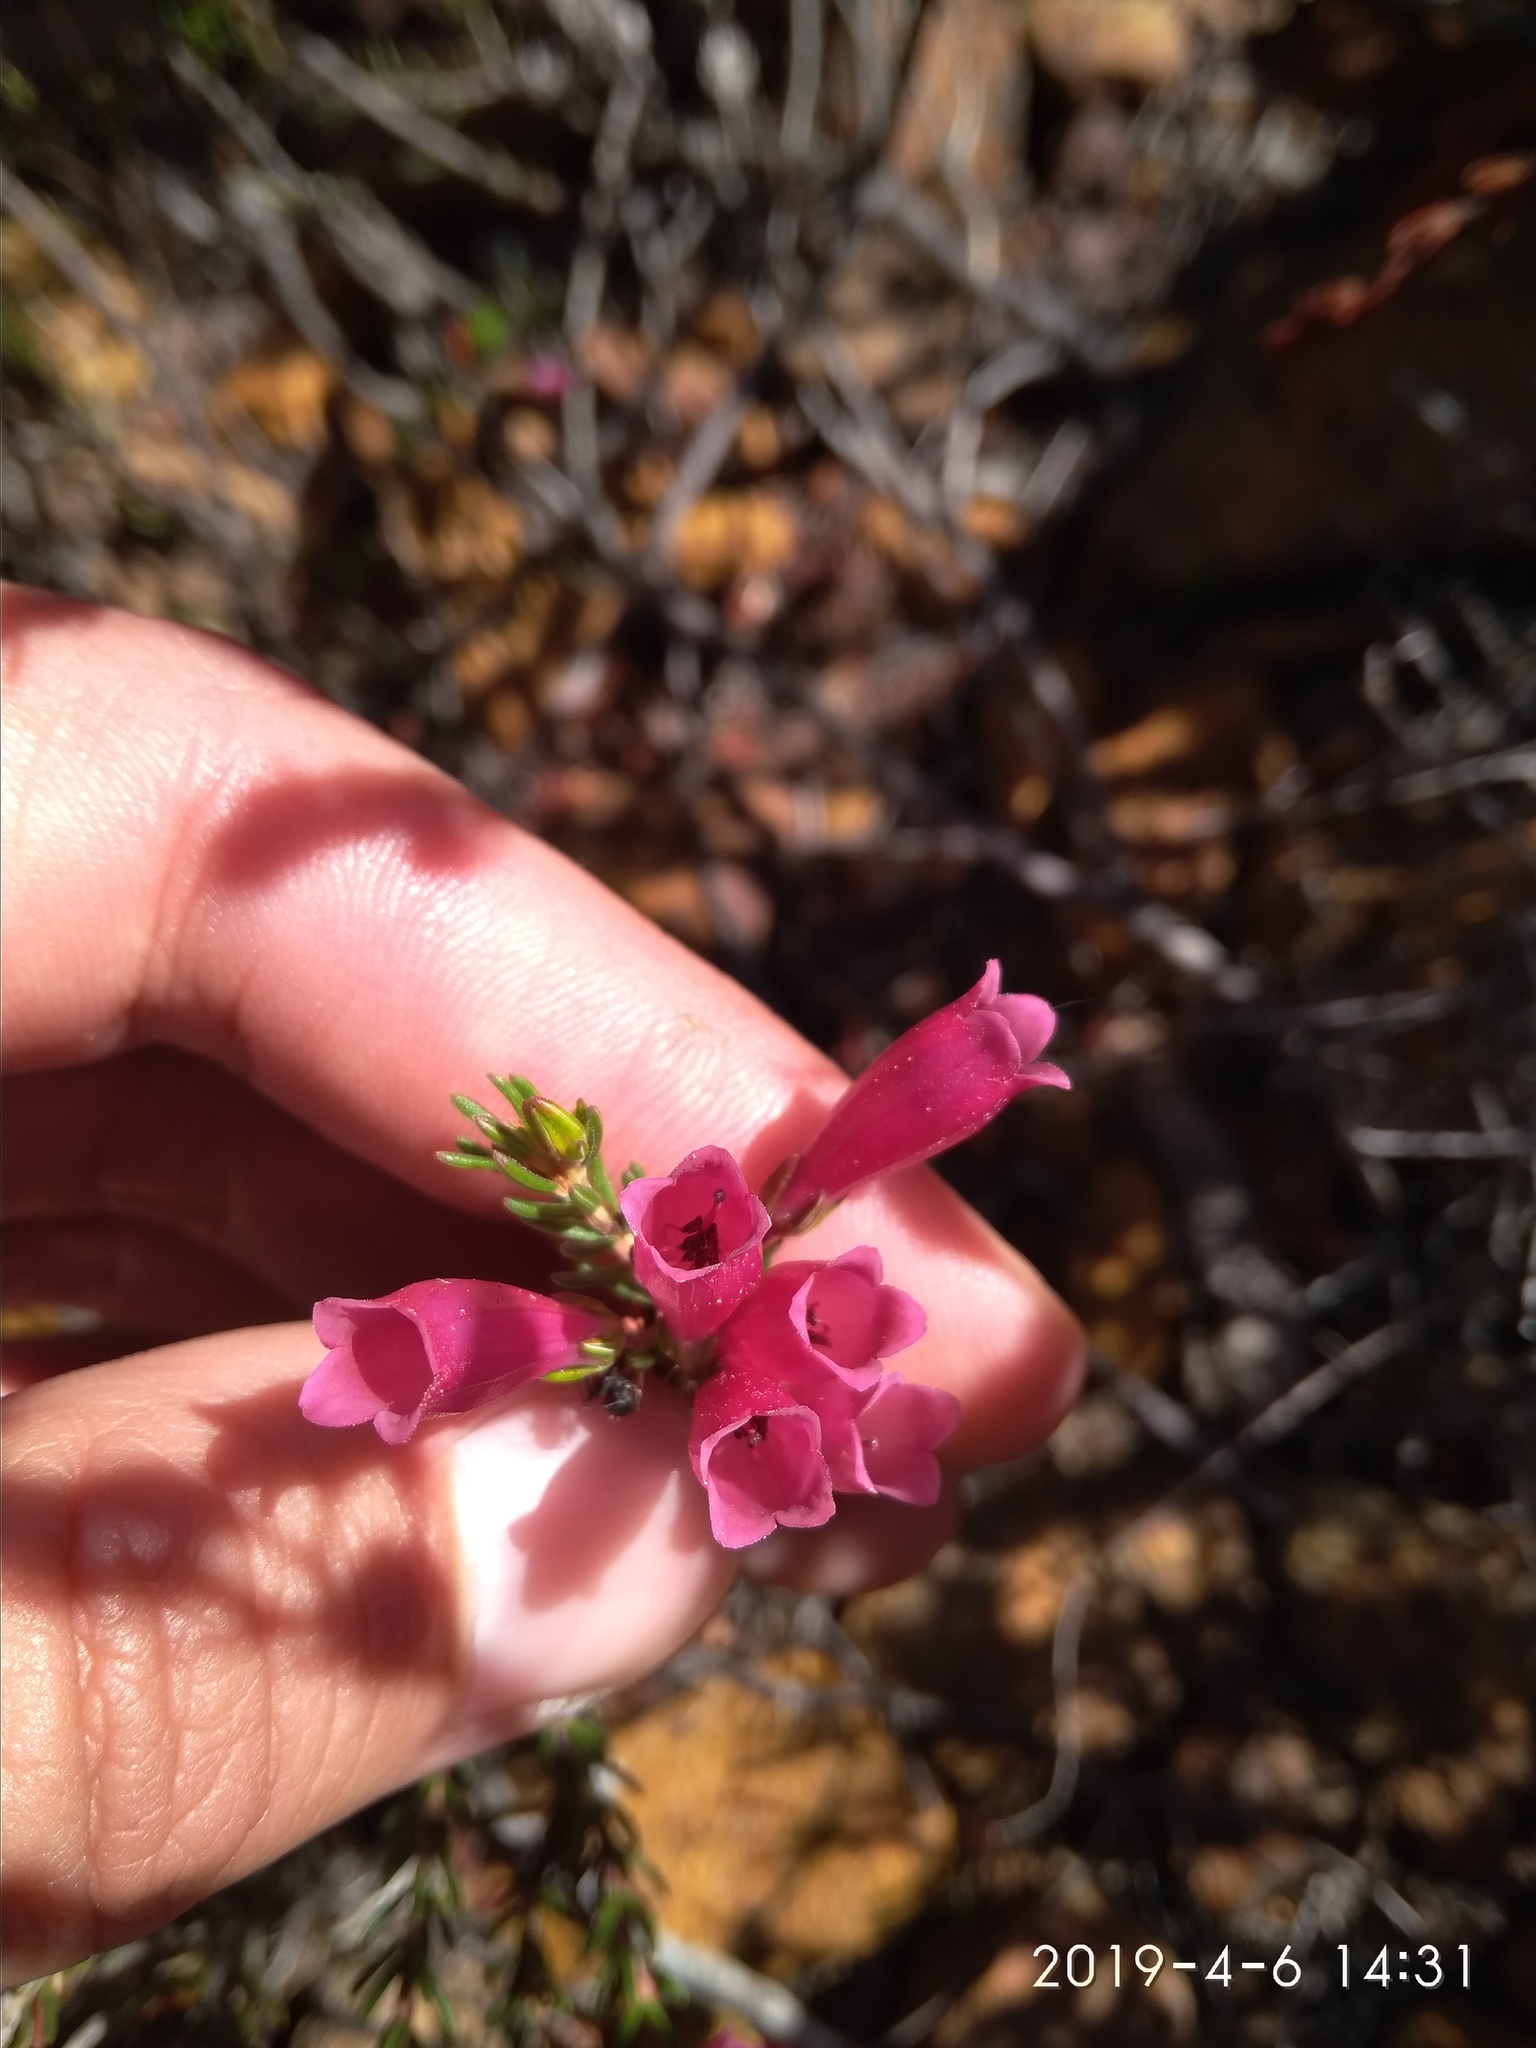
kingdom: Plantae
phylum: Tracheophyta
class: Magnoliopsida
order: Ericales
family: Ericaceae
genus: Erica
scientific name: Erica
